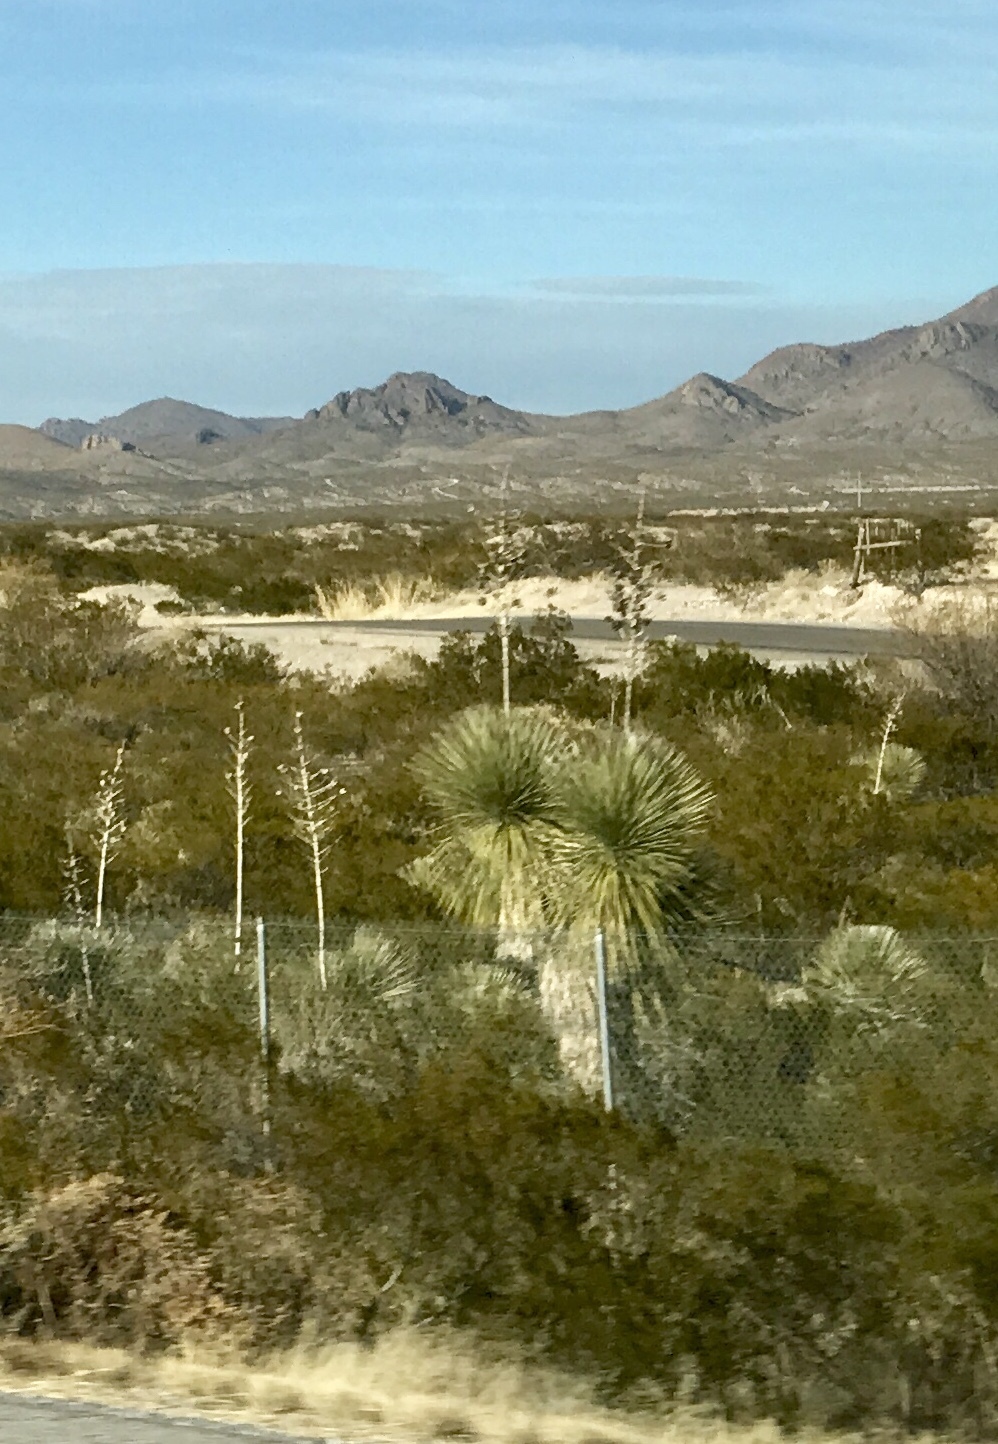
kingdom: Plantae
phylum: Tracheophyta
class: Liliopsida
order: Asparagales
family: Asparagaceae
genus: Yucca
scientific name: Yucca elata
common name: Palmella
